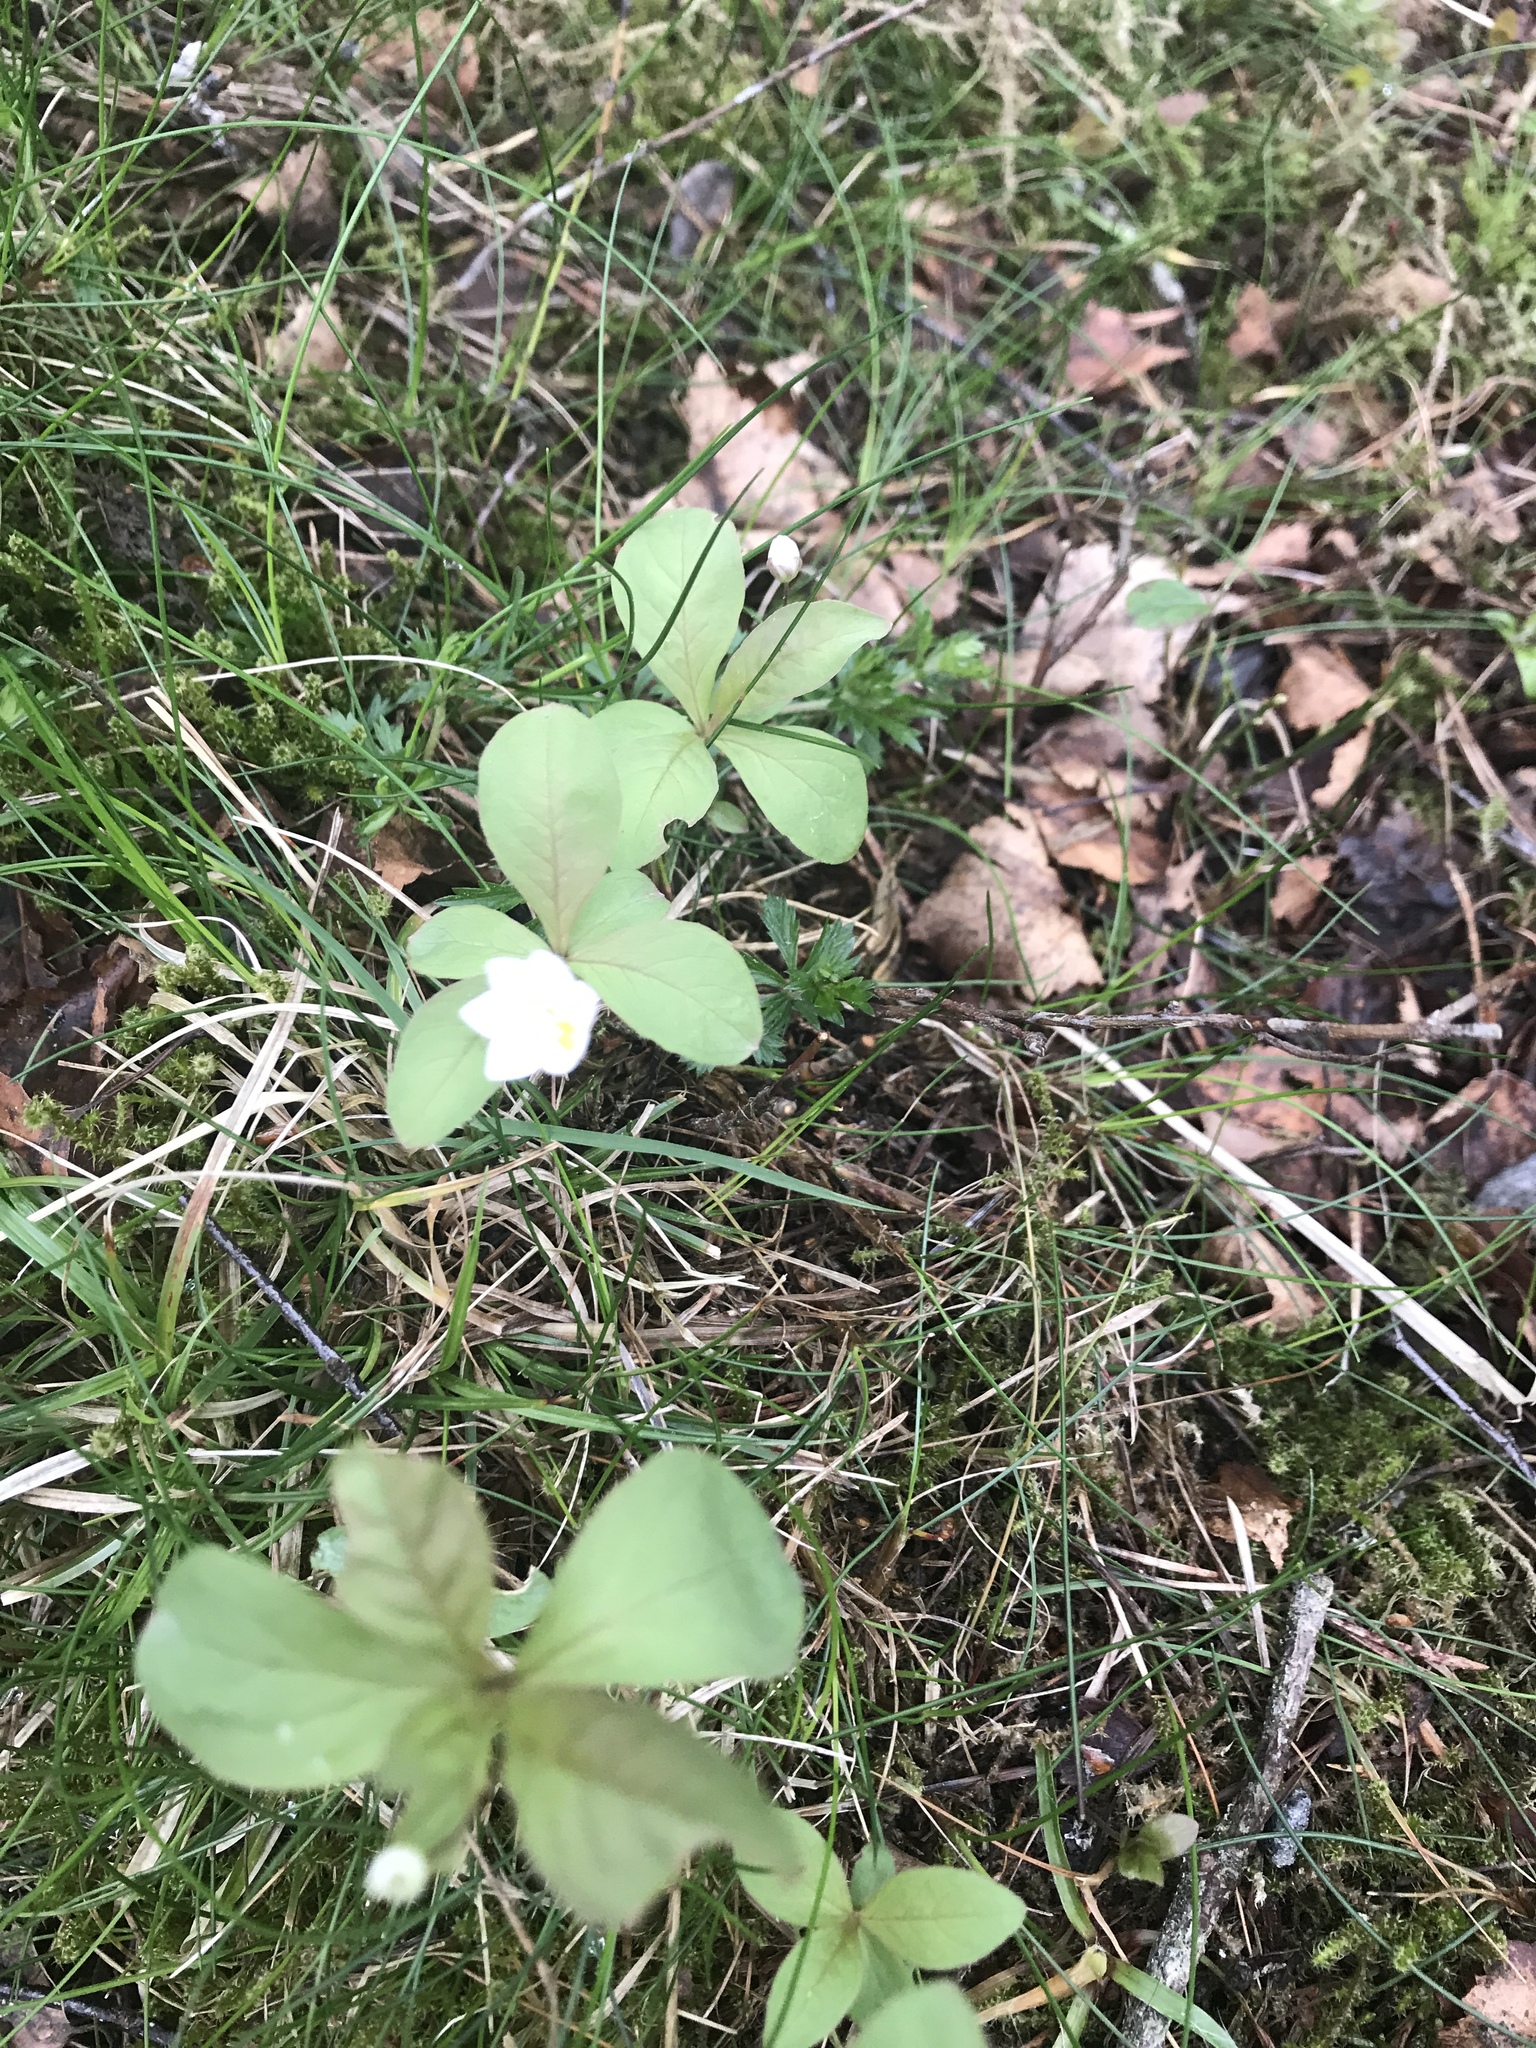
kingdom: Plantae
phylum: Tracheophyta
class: Magnoliopsida
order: Ericales
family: Primulaceae
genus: Lysimachia
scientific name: Lysimachia europaea
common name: Arctic starflower
